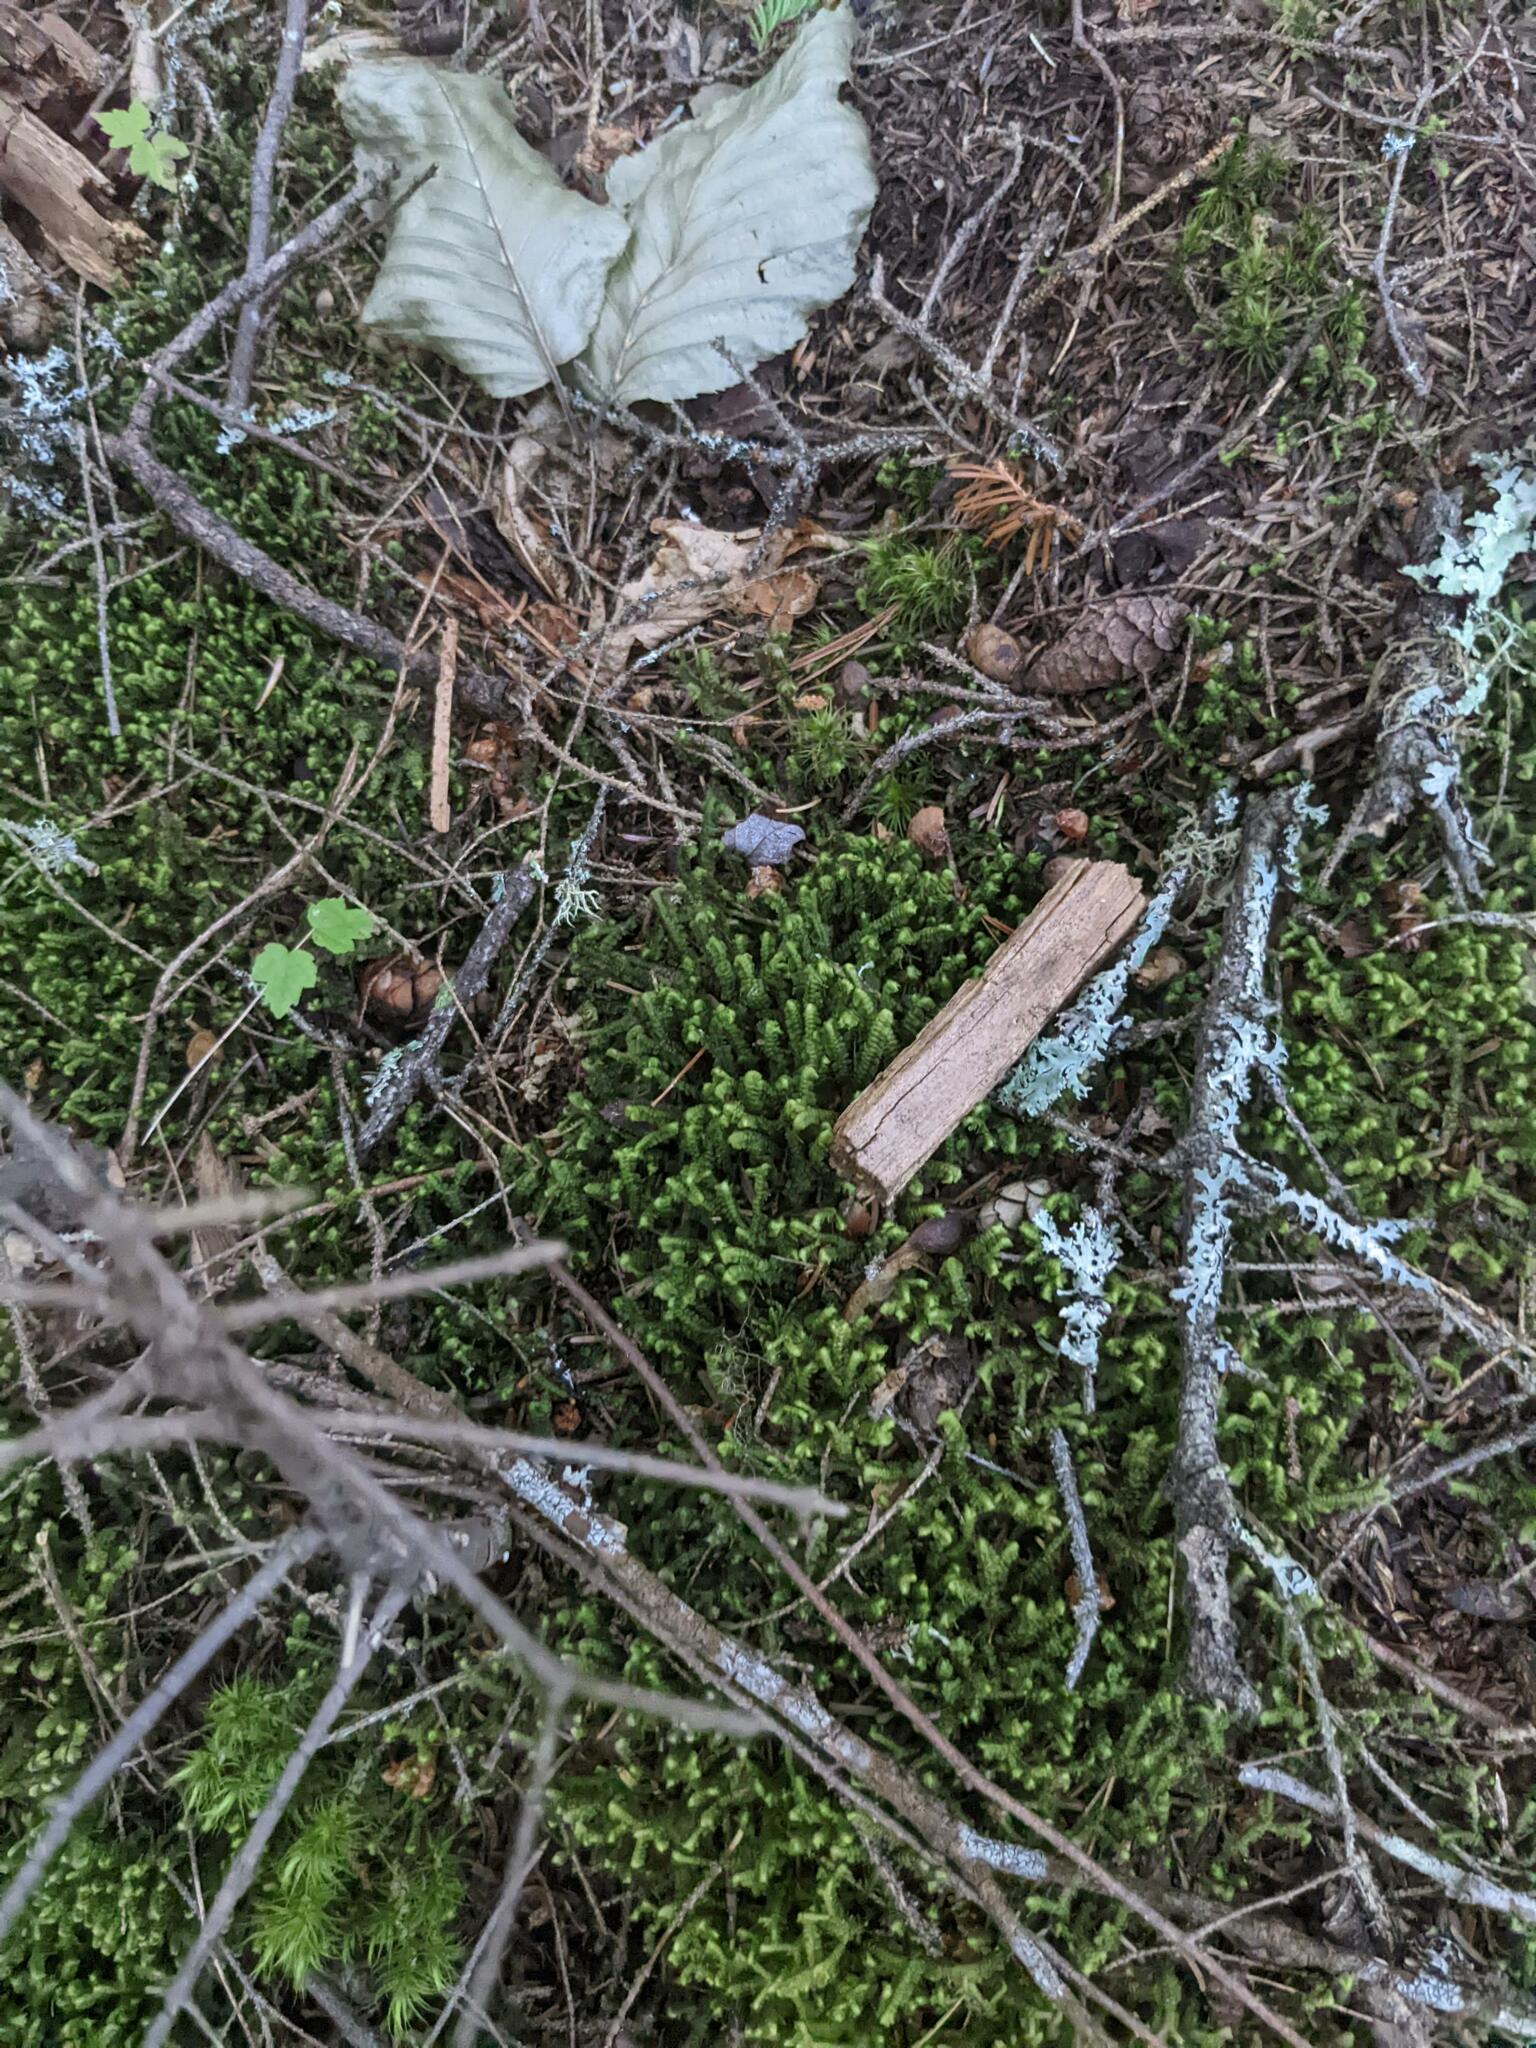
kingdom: Plantae
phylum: Marchantiophyta
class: Jungermanniopsida
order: Jungermanniales
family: Lepidoziaceae
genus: Bazzania
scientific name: Bazzania trilobata
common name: Three-lobed whipwort
